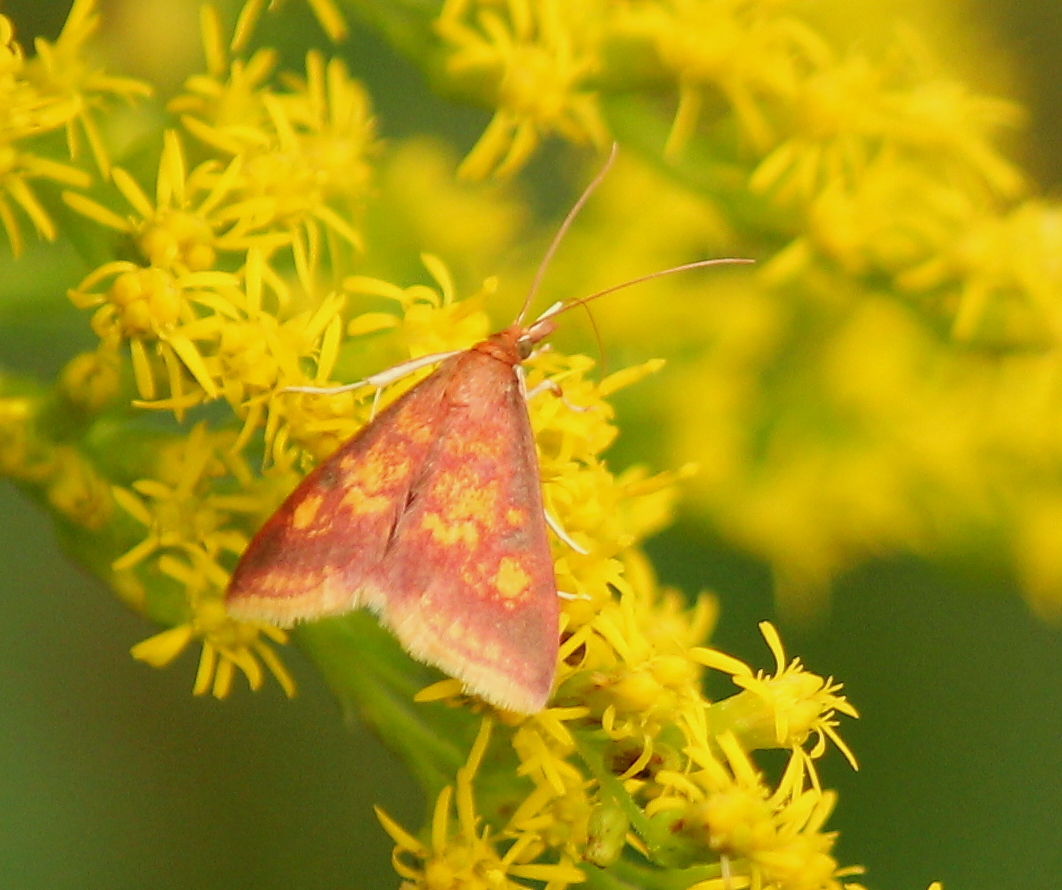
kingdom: Animalia
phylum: Arthropoda
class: Insecta
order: Lepidoptera
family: Crambidae
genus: Pyrausta
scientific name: Pyrausta acrionalis
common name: Mint-loving pyrausta moth
